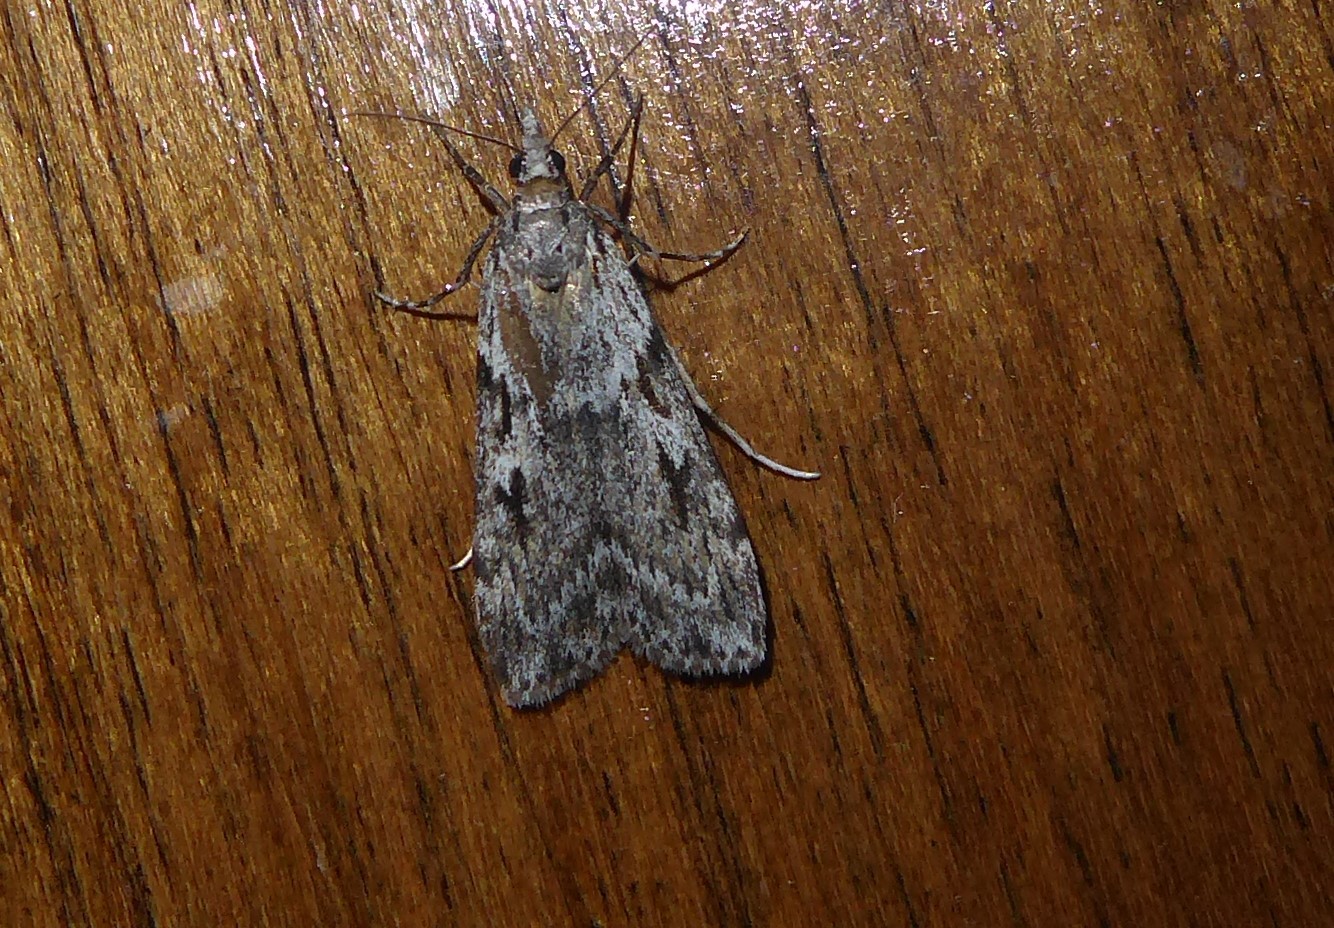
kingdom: Animalia
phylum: Arthropoda
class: Insecta
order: Lepidoptera
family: Crambidae
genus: Scoparia
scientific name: Scoparia halopis
